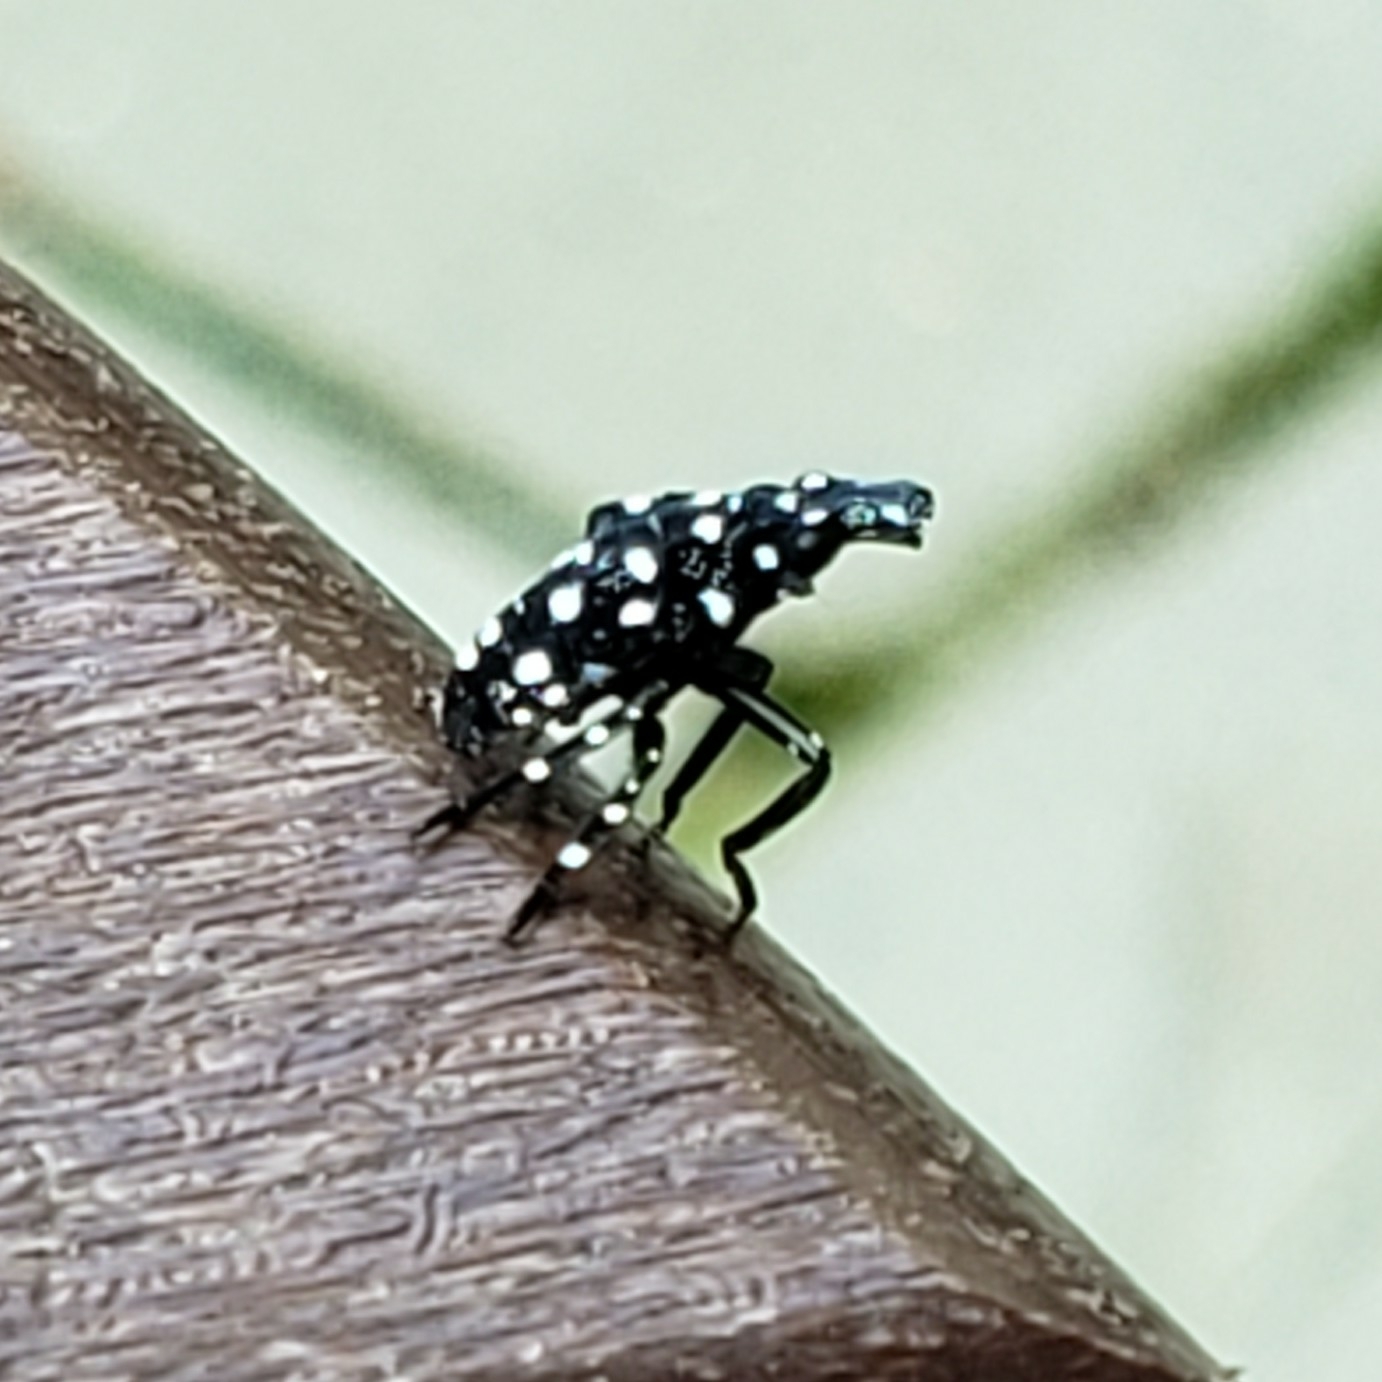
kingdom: Animalia
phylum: Arthropoda
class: Insecta
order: Hemiptera
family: Fulgoridae
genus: Lycorma
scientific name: Lycorma delicatula
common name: Spotted lanternfly
